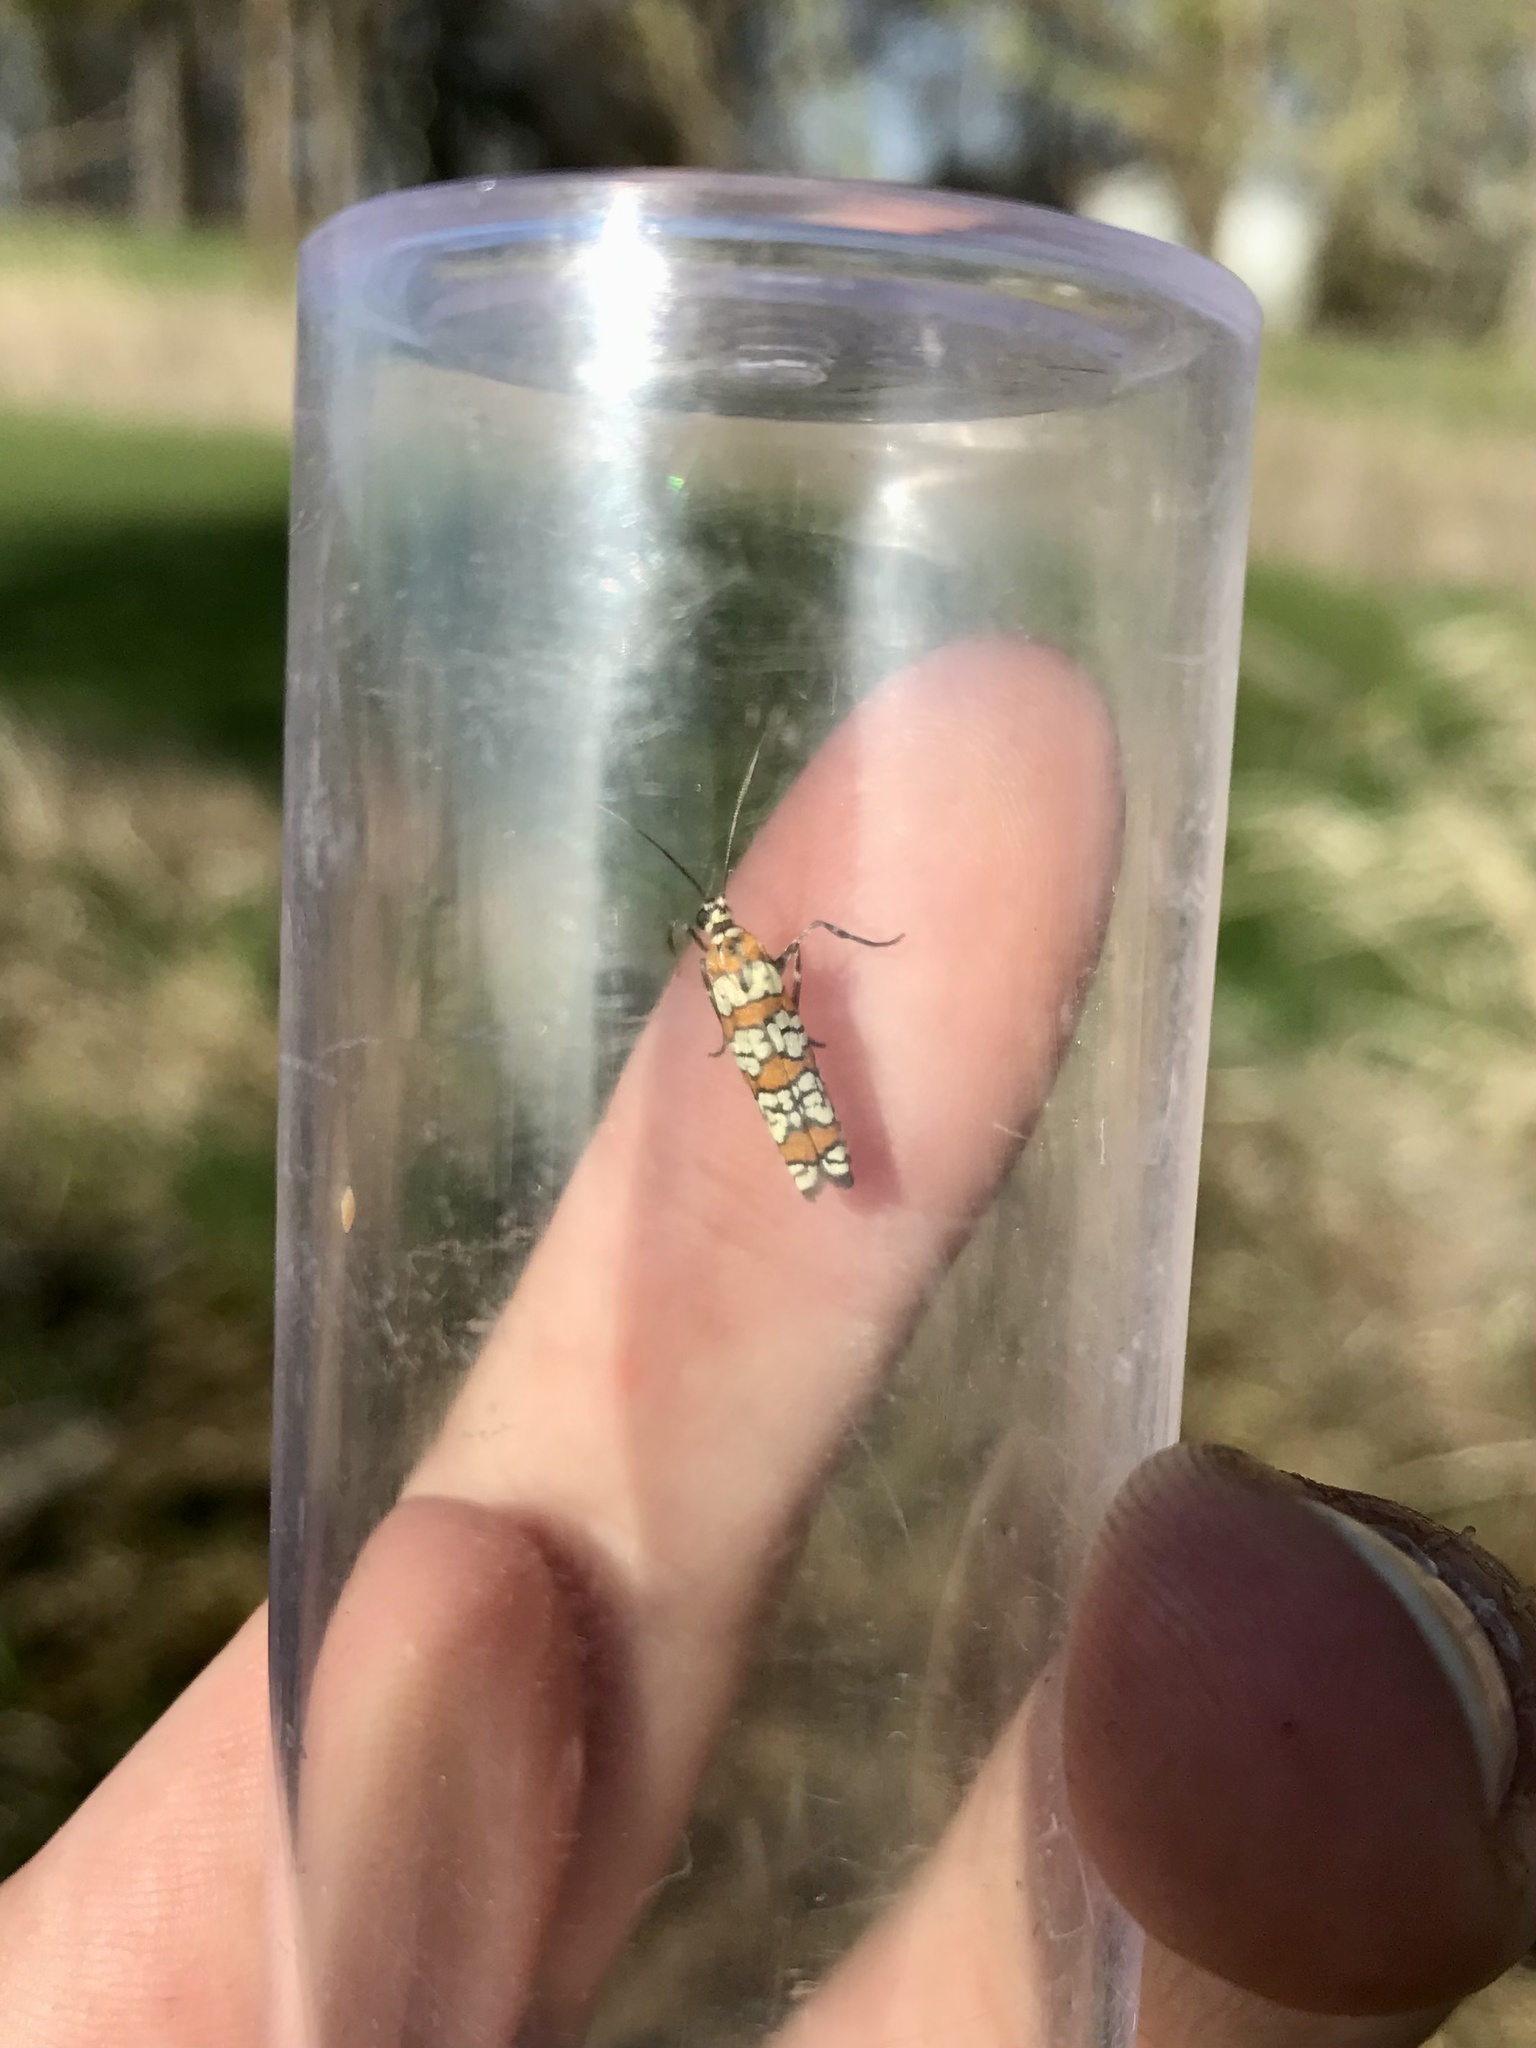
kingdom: Animalia
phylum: Arthropoda
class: Insecta
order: Lepidoptera
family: Attevidae
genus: Atteva
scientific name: Atteva punctella
